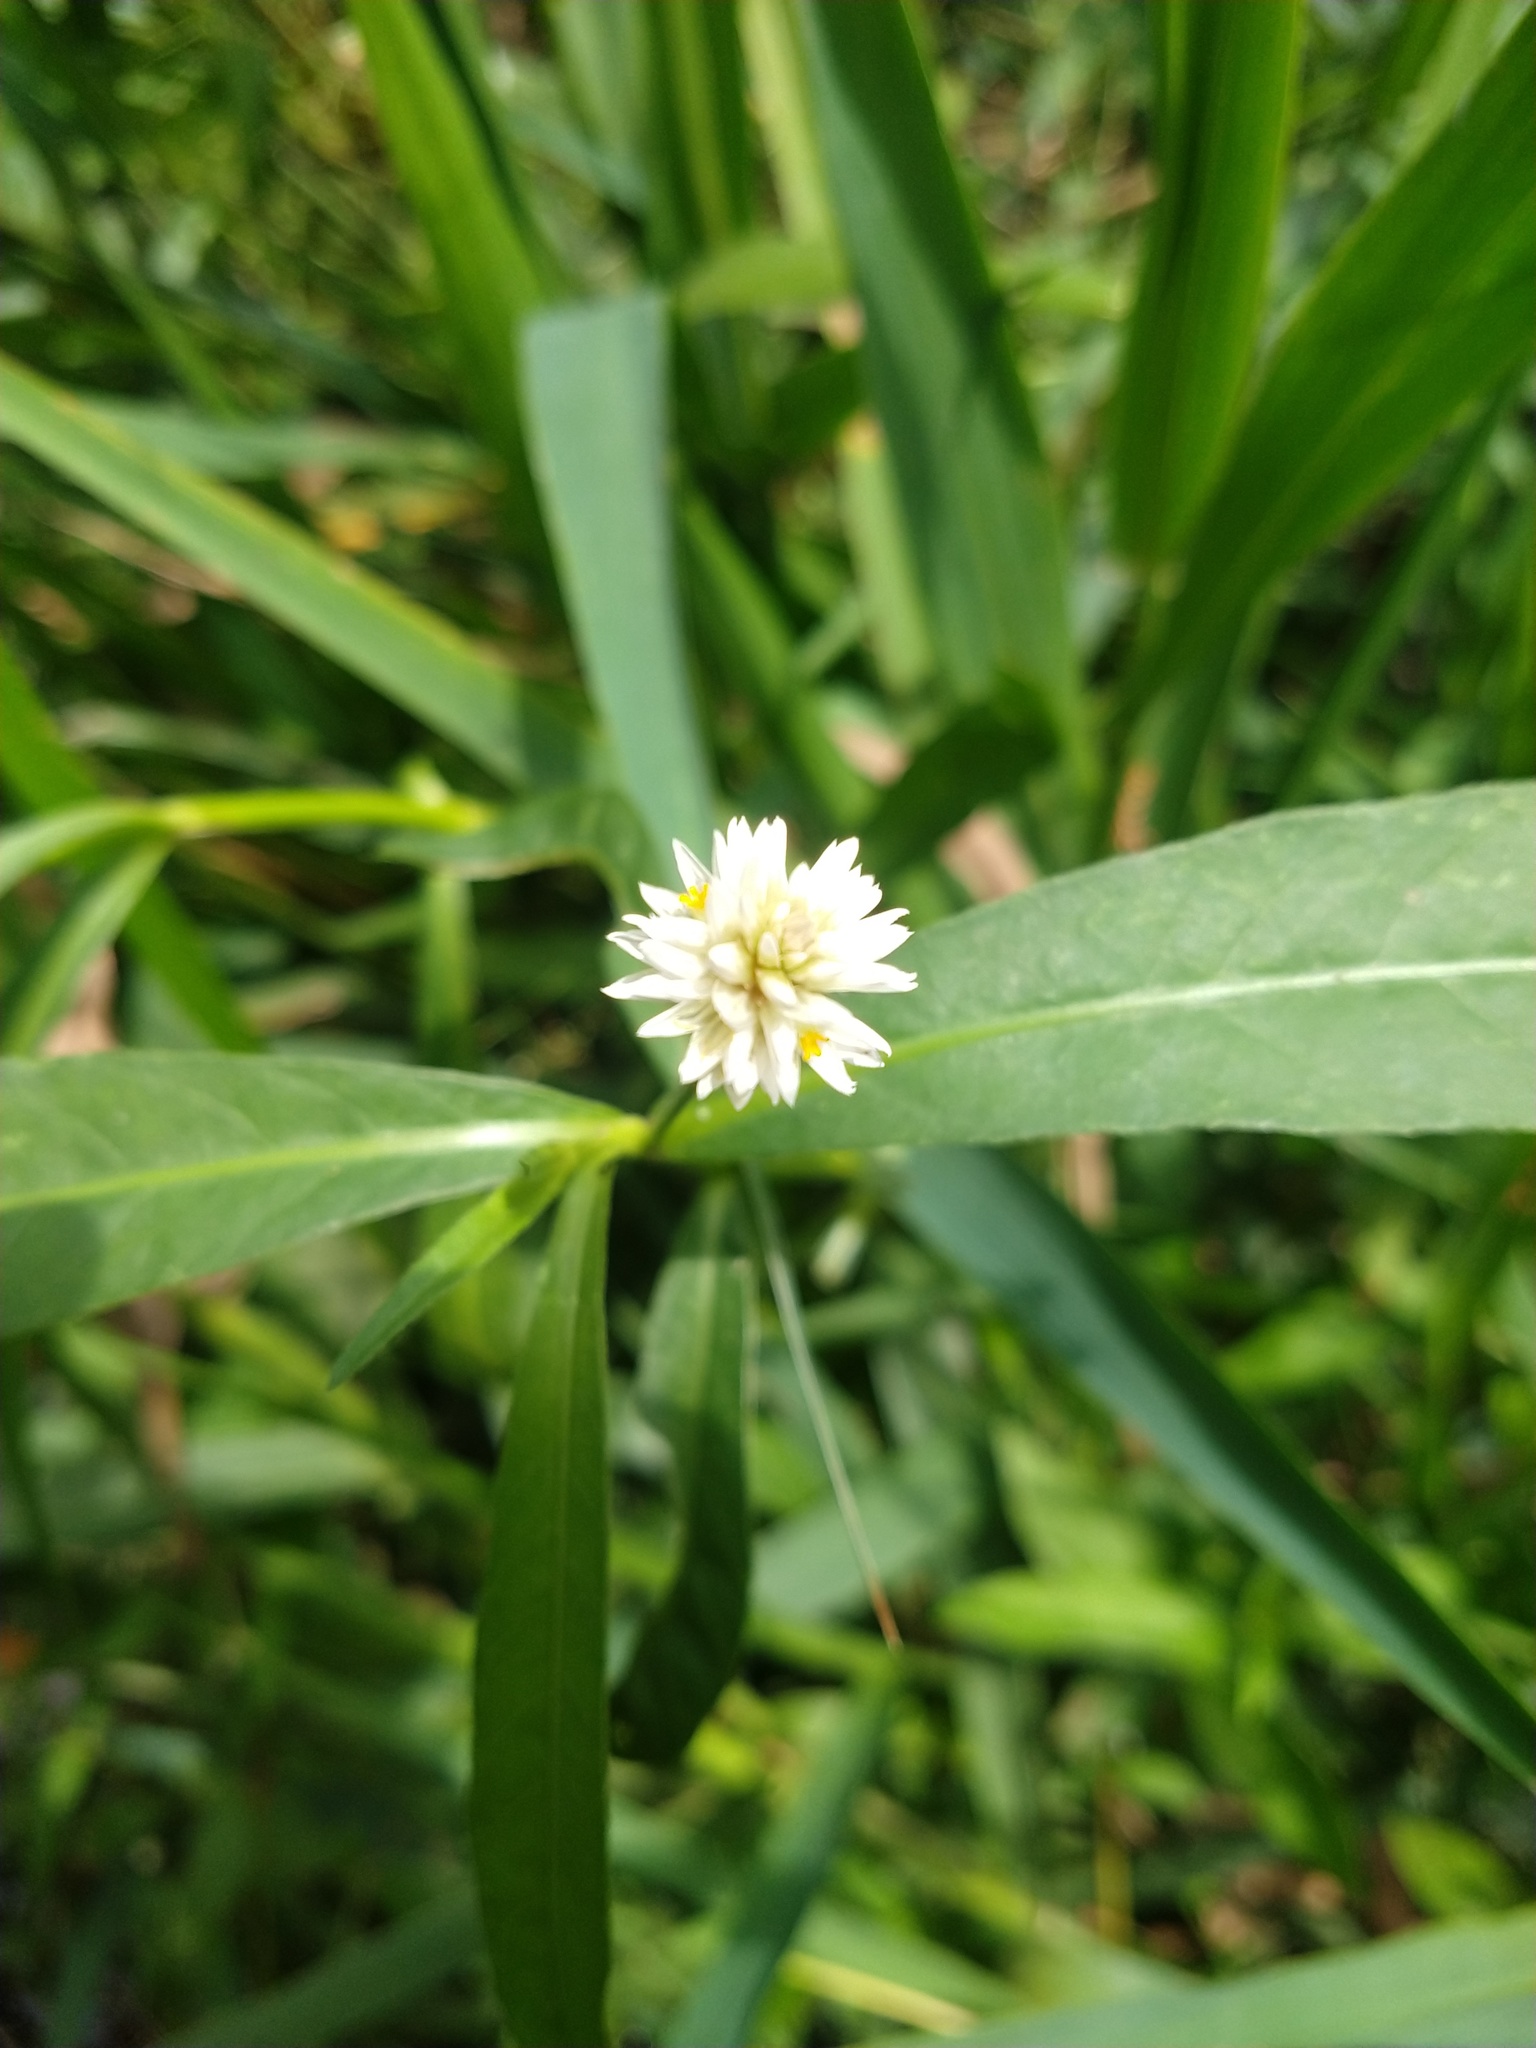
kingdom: Plantae
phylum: Tracheophyta
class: Magnoliopsida
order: Caryophyllales
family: Amaranthaceae
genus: Alternanthera
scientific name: Alternanthera philoxeroides
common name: Alligatorweed
